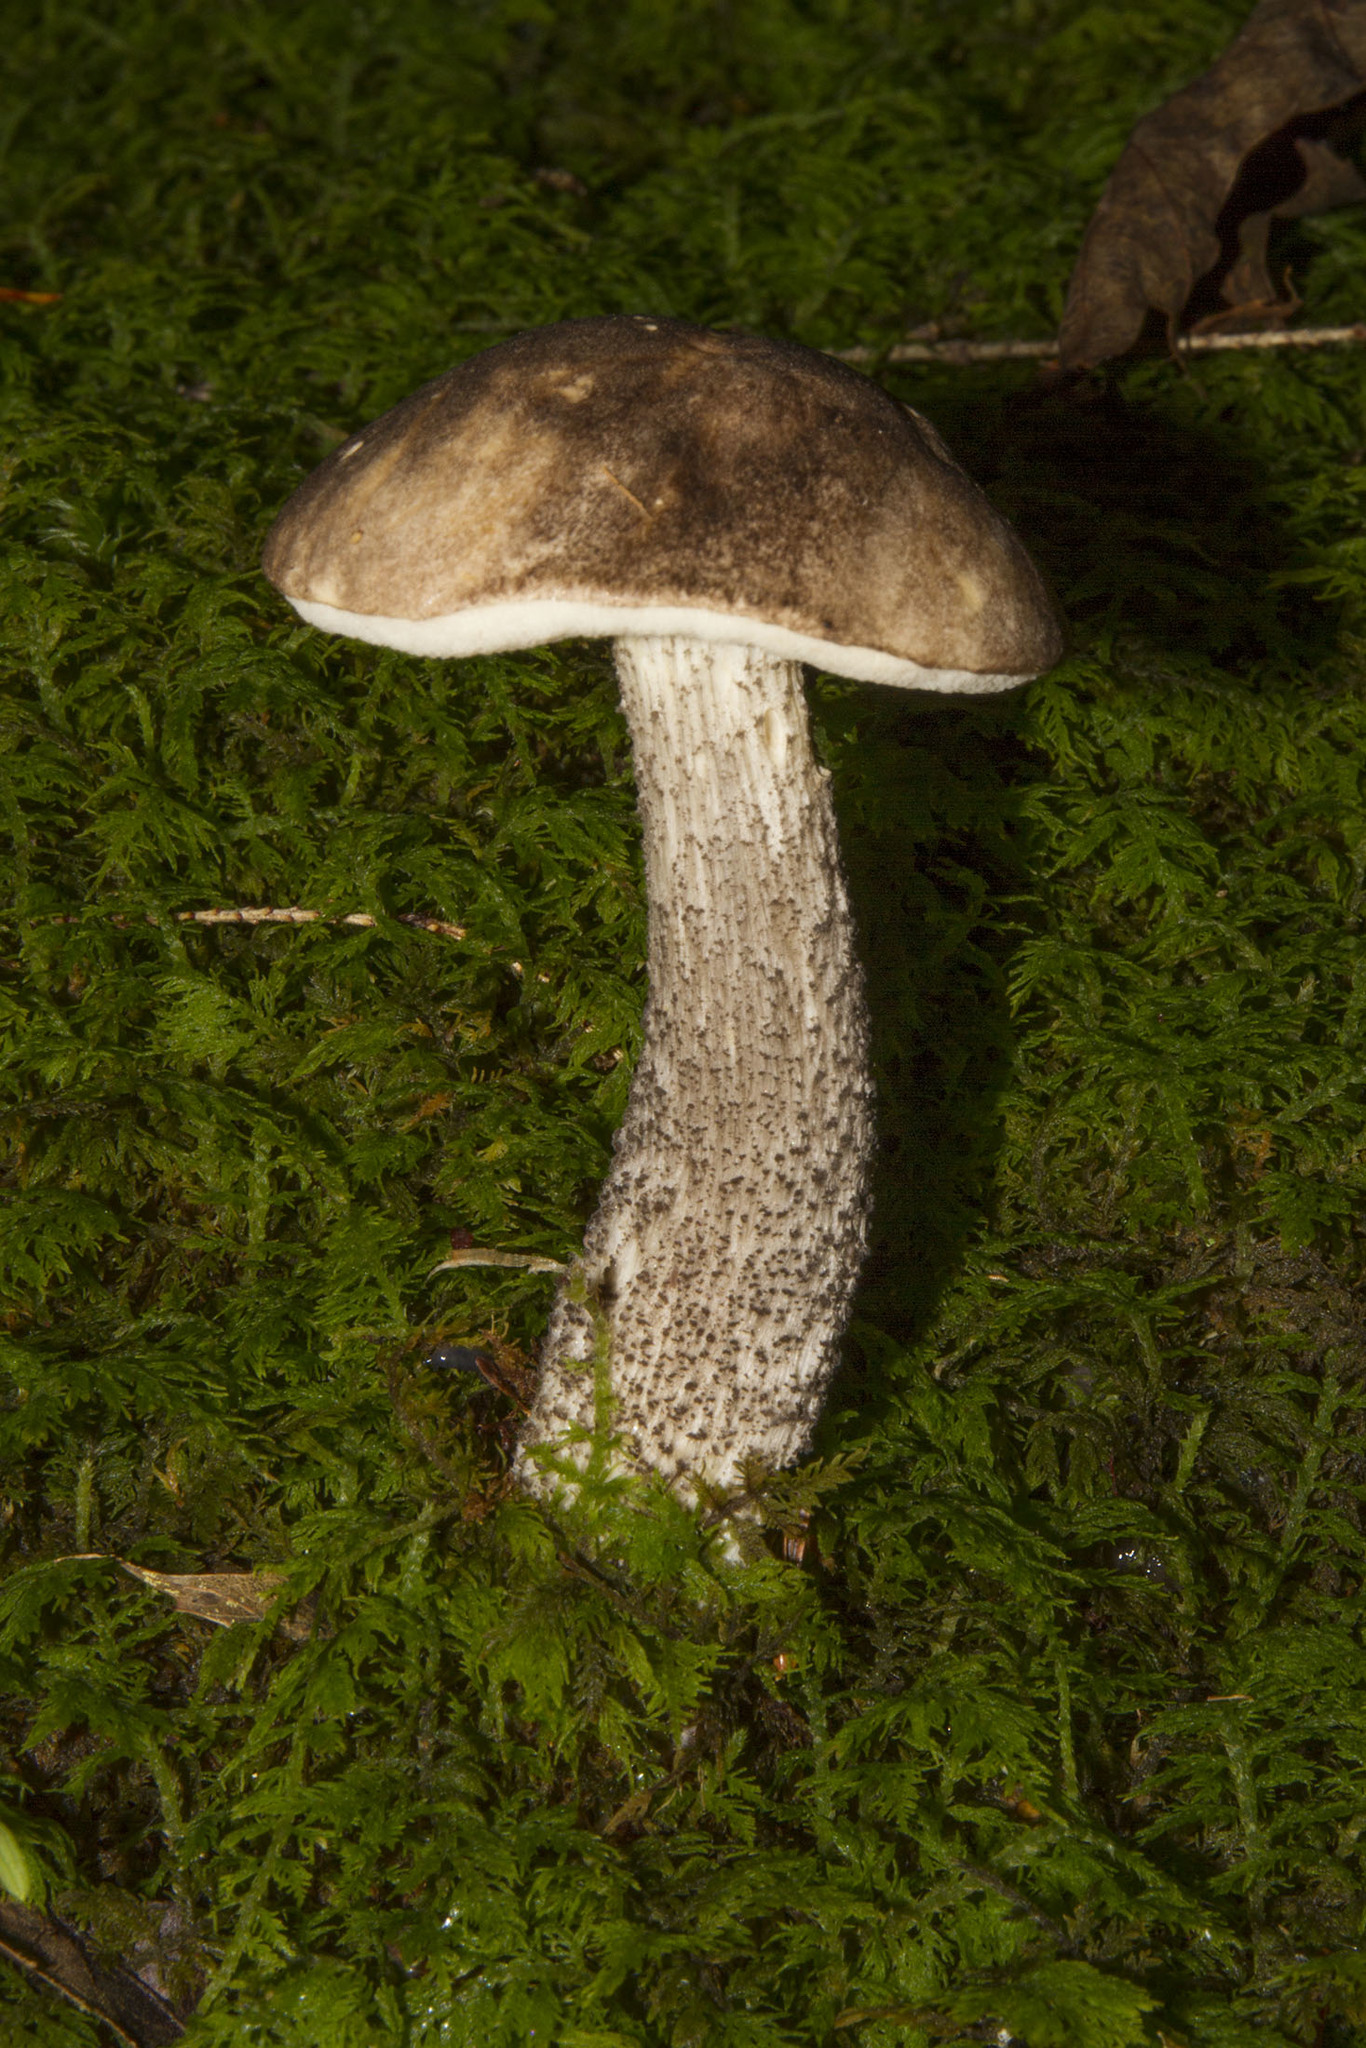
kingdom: Fungi
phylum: Basidiomycota
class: Agaricomycetes
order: Boletales
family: Boletaceae
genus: Leccinum
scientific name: Leccinum snellii
